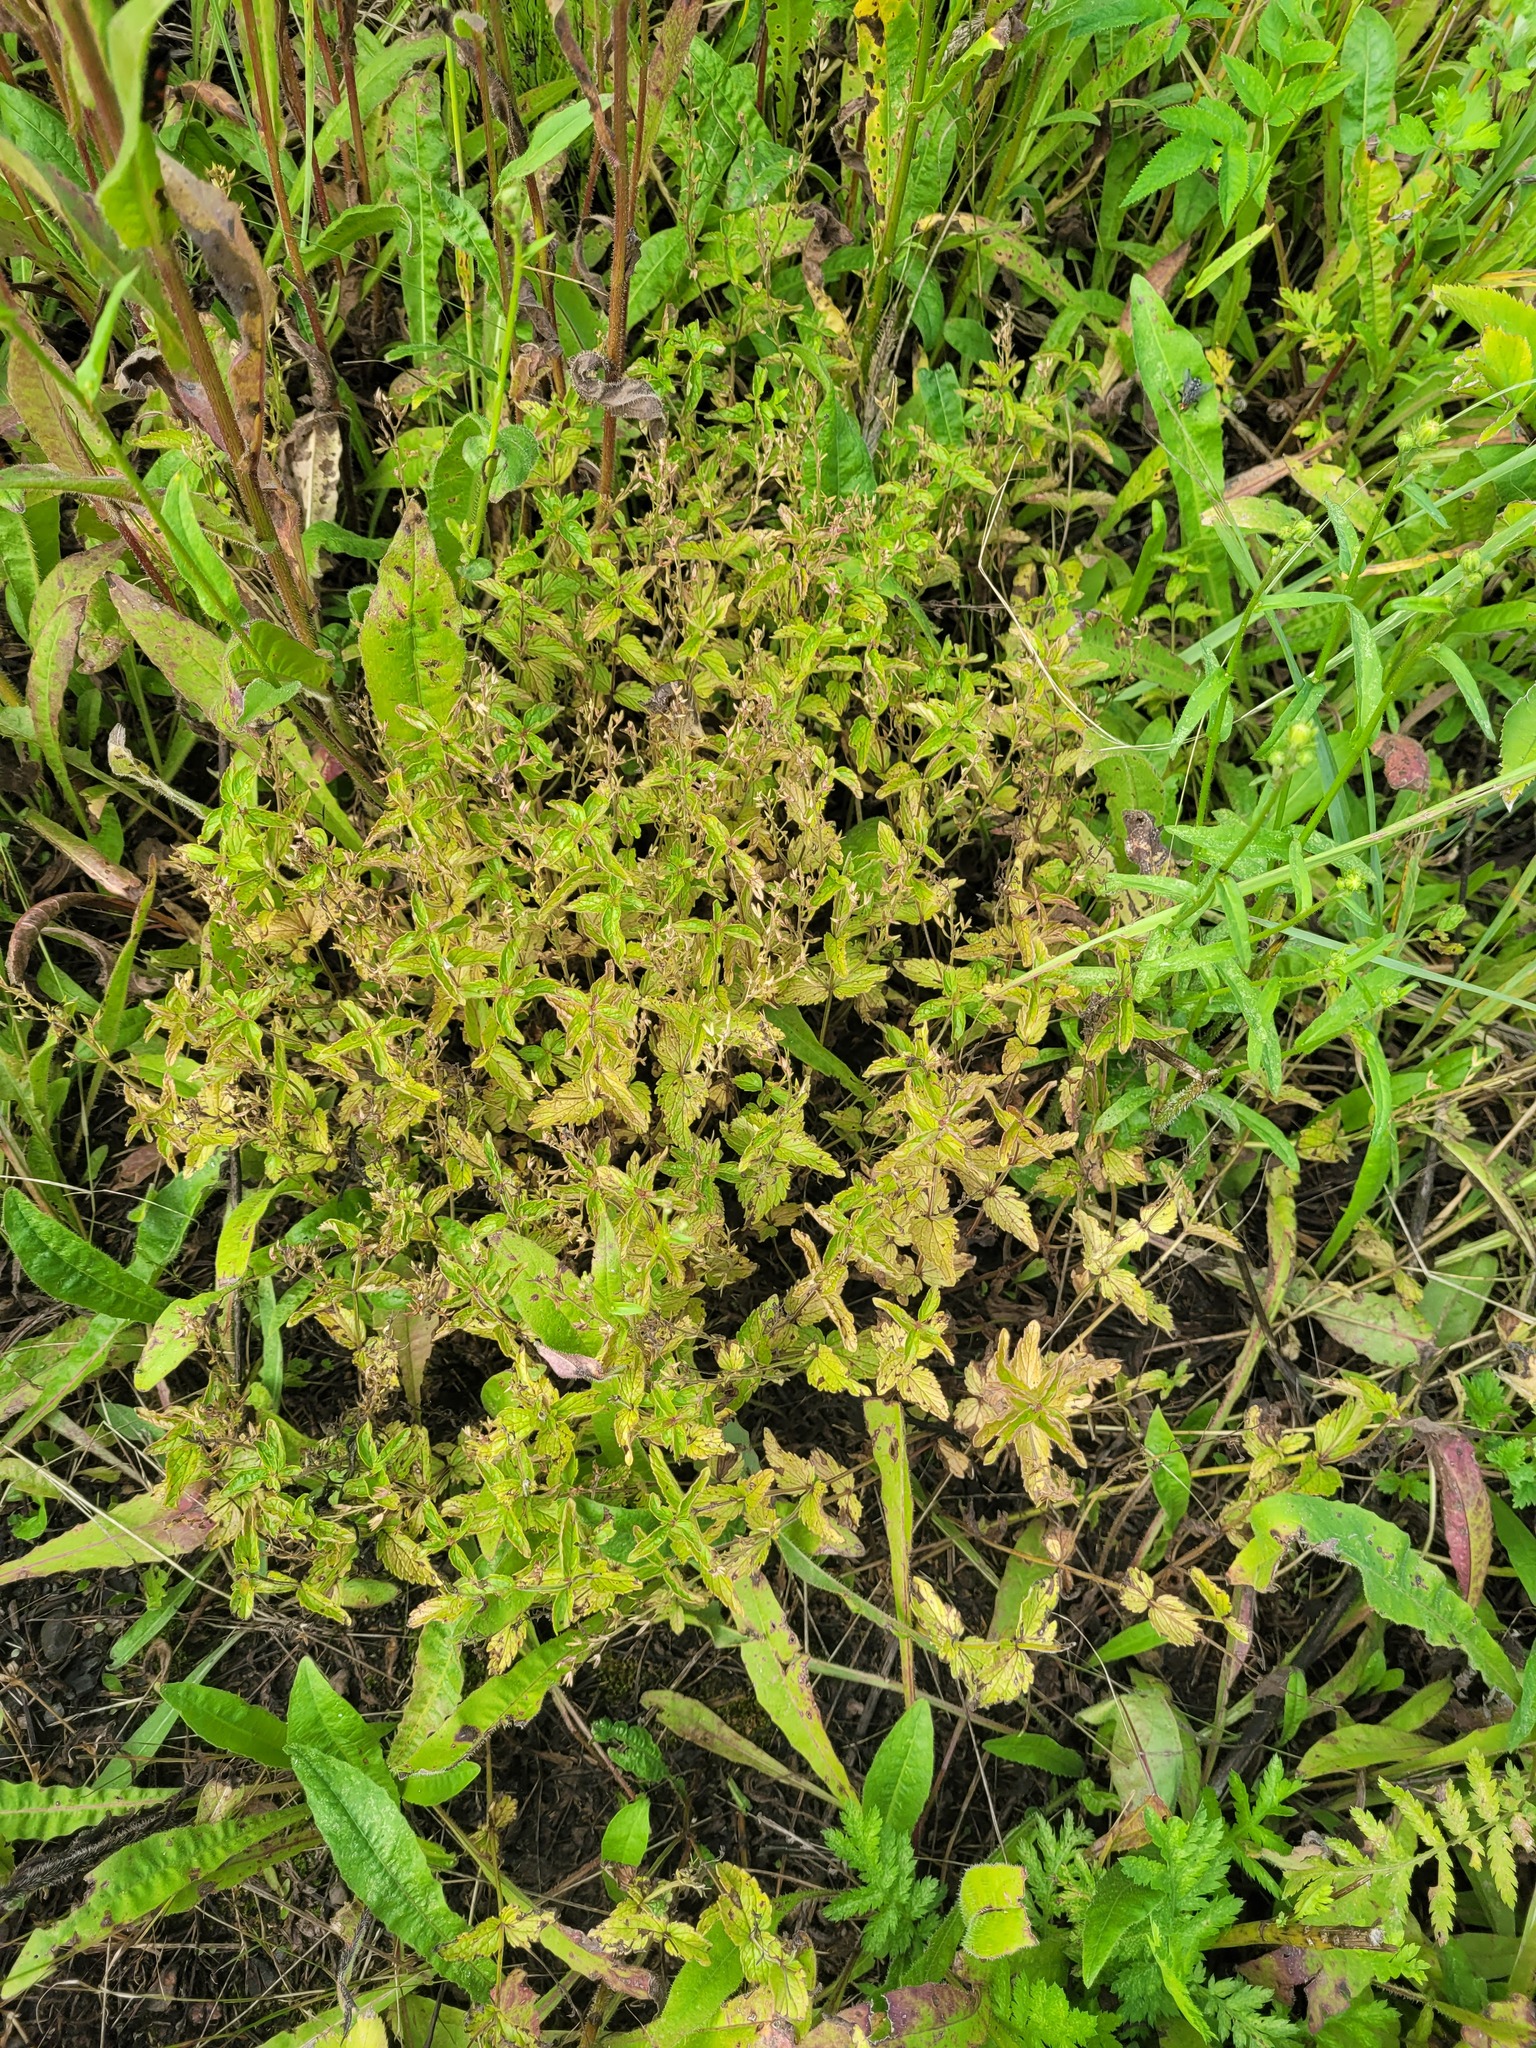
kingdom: Plantae
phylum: Tracheophyta
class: Magnoliopsida
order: Lamiales
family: Plantaginaceae
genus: Veronica
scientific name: Veronica chamaedrys
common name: Germander speedwell
